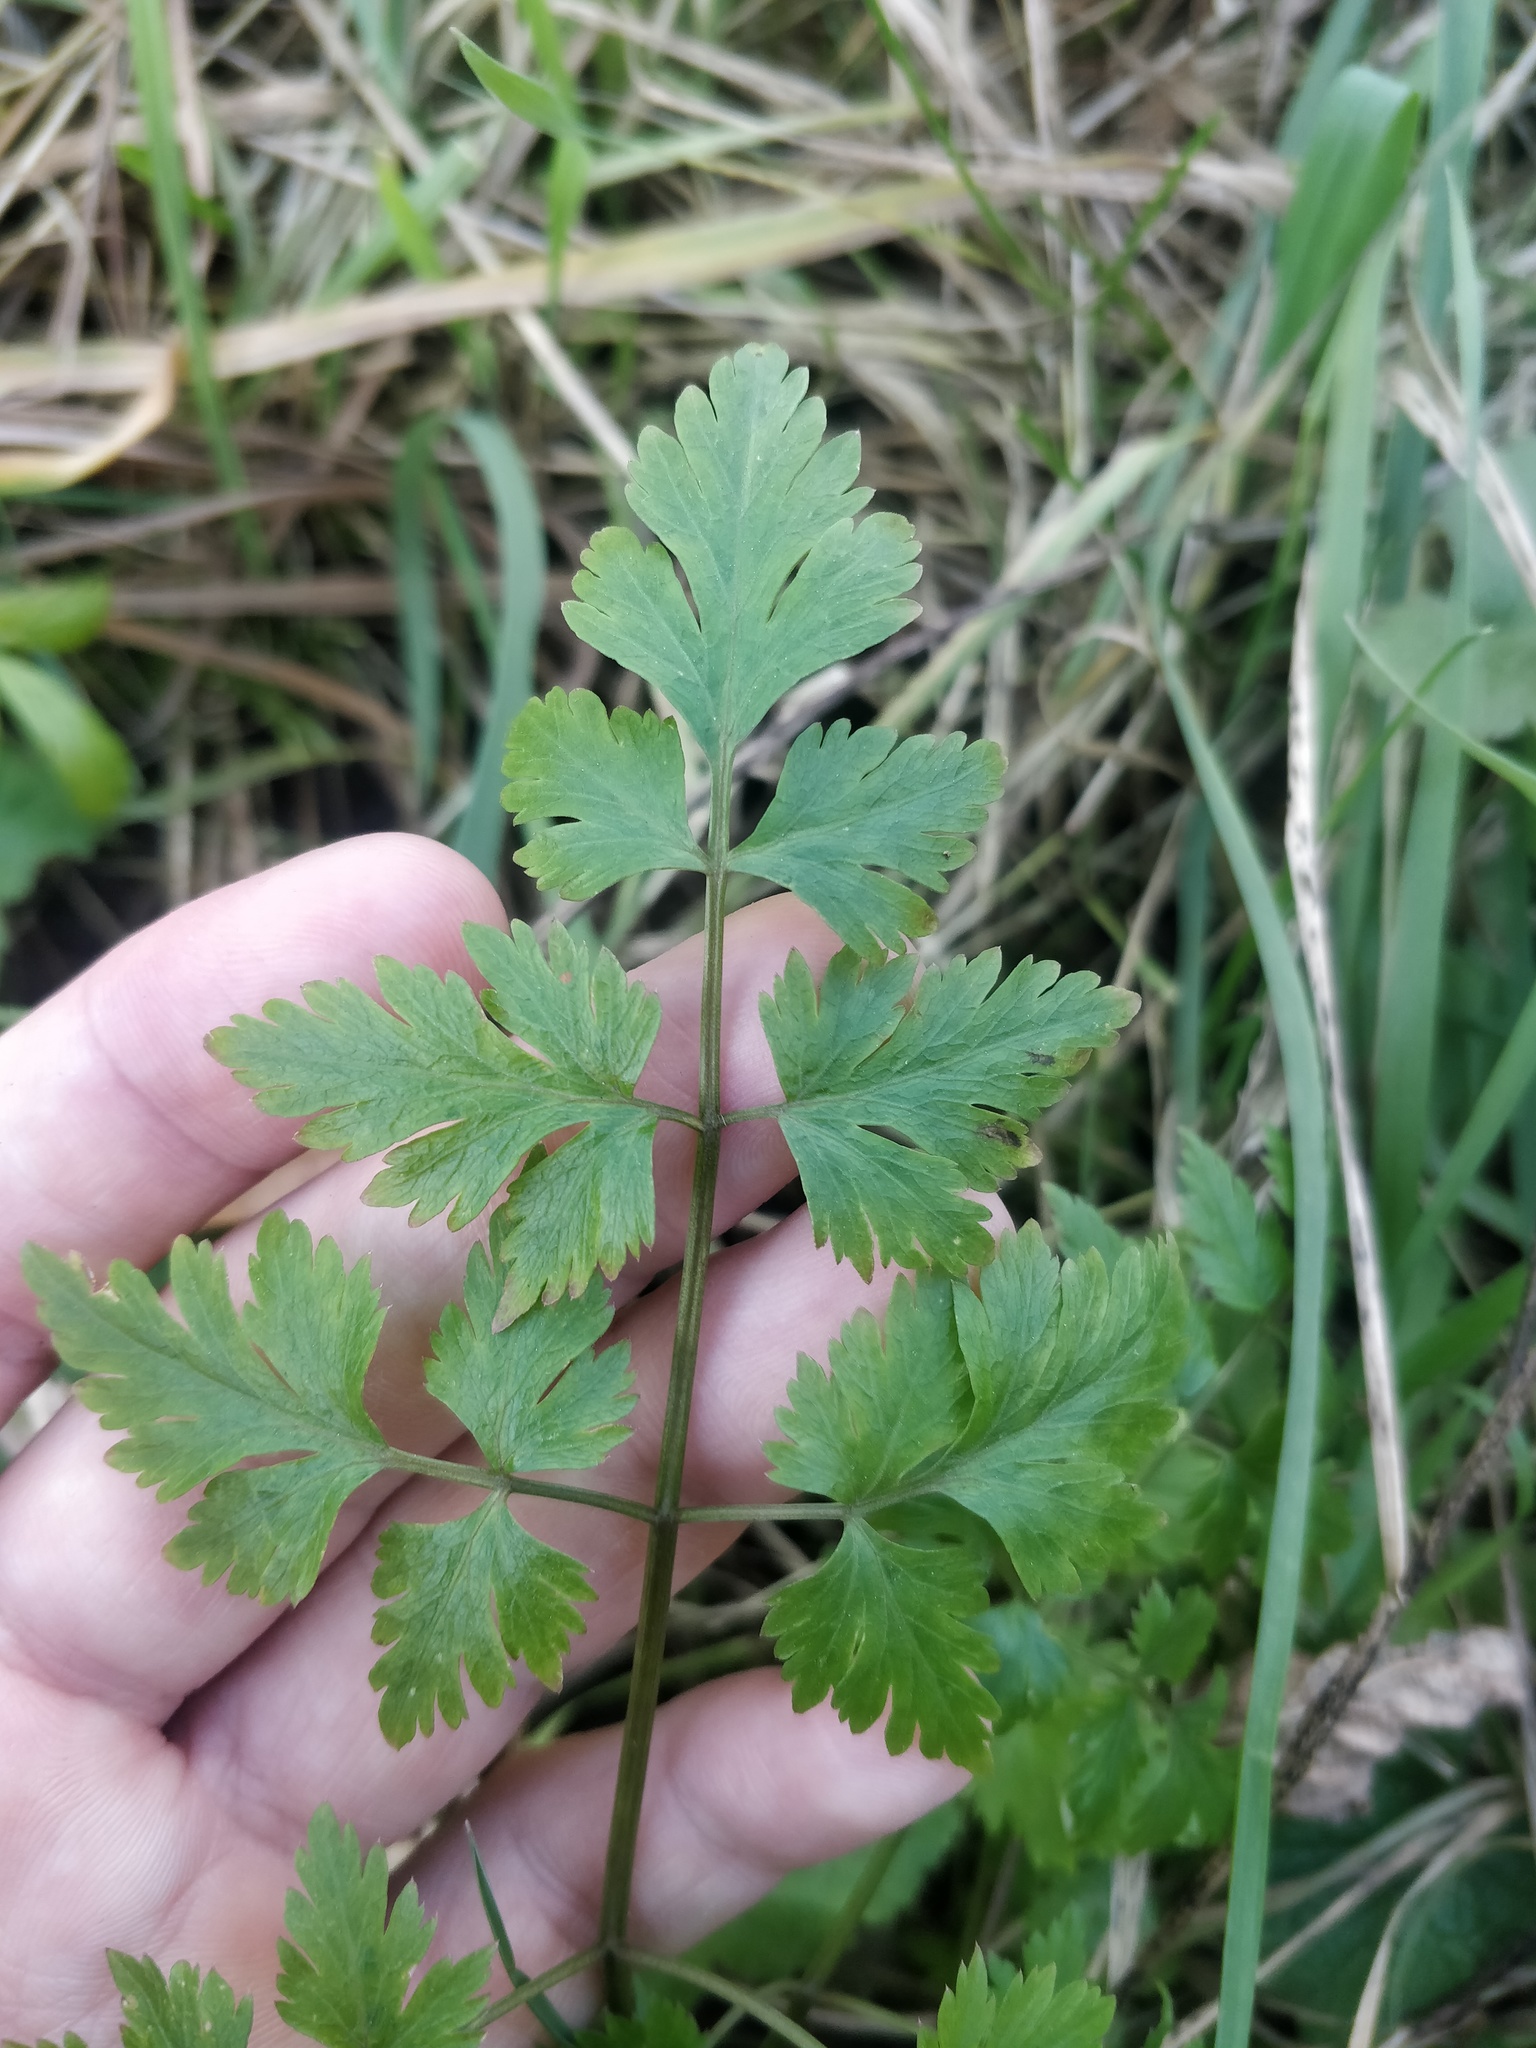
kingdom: Plantae
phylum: Tracheophyta
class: Magnoliopsida
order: Apiales
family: Apiaceae
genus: Anthriscus
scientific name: Anthriscus sylvestris
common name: Cow parsley
